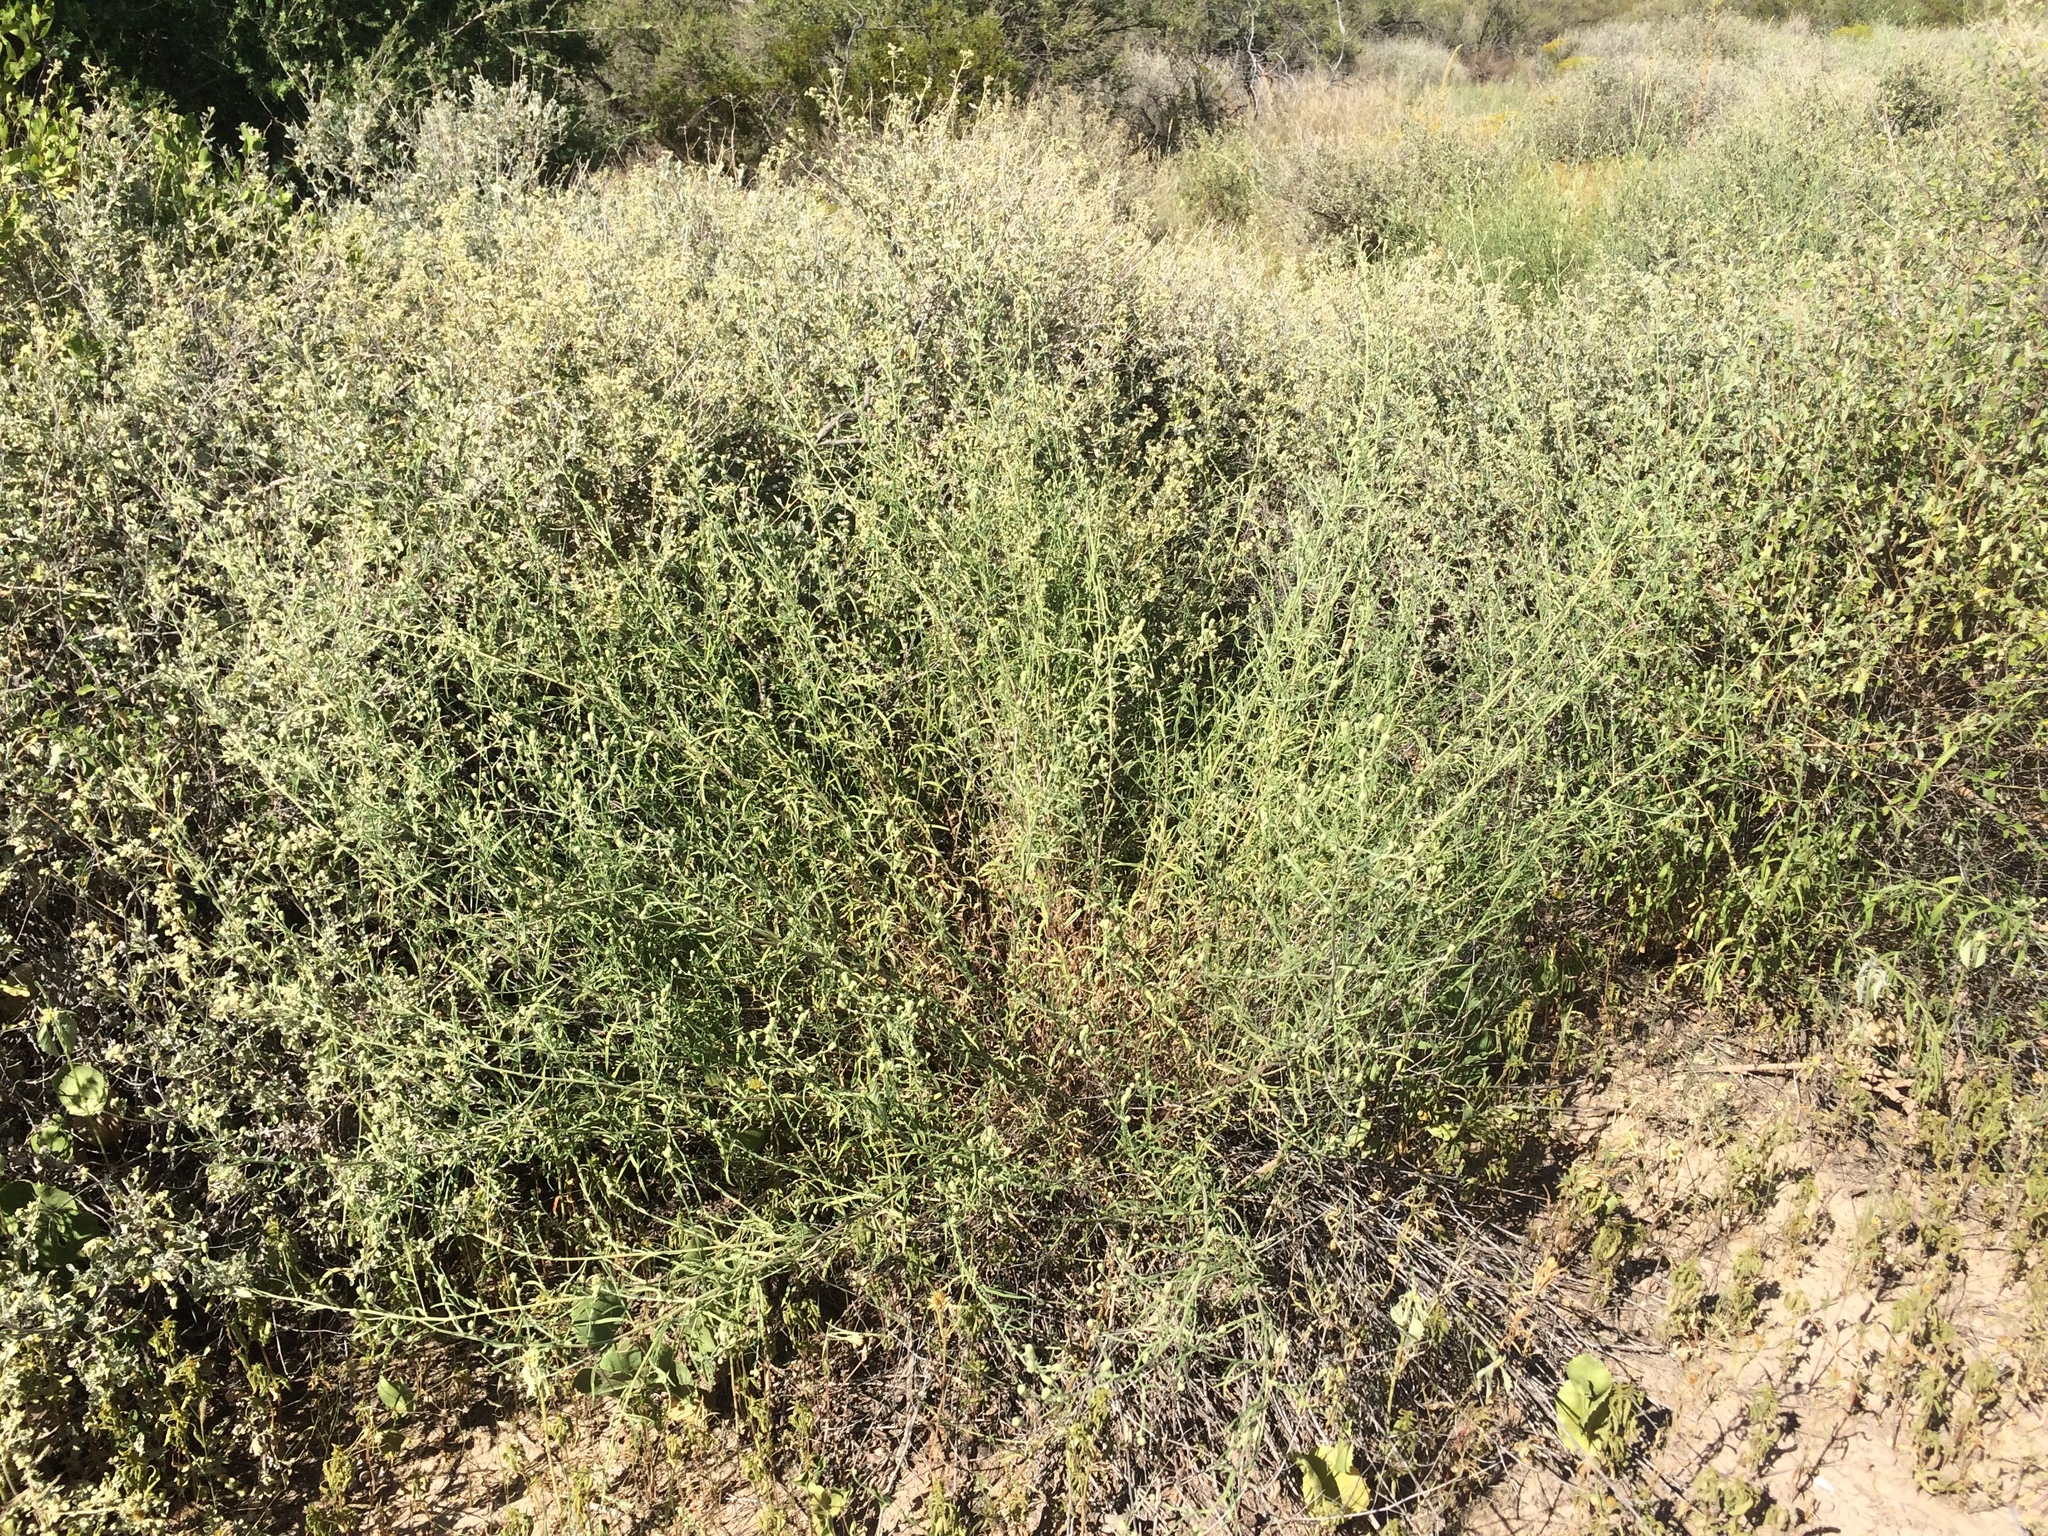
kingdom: Plantae
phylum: Tracheophyta
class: Magnoliopsida
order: Asterales
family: Asteraceae
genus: Brickellia
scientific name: Brickellia eupatorioides
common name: False boneset
